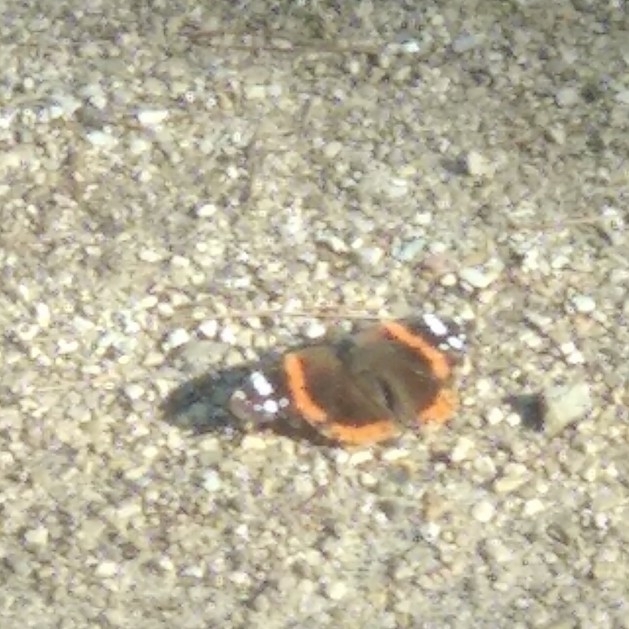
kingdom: Animalia
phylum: Arthropoda
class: Insecta
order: Lepidoptera
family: Nymphalidae
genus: Vanessa
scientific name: Vanessa atalanta
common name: Red admiral
